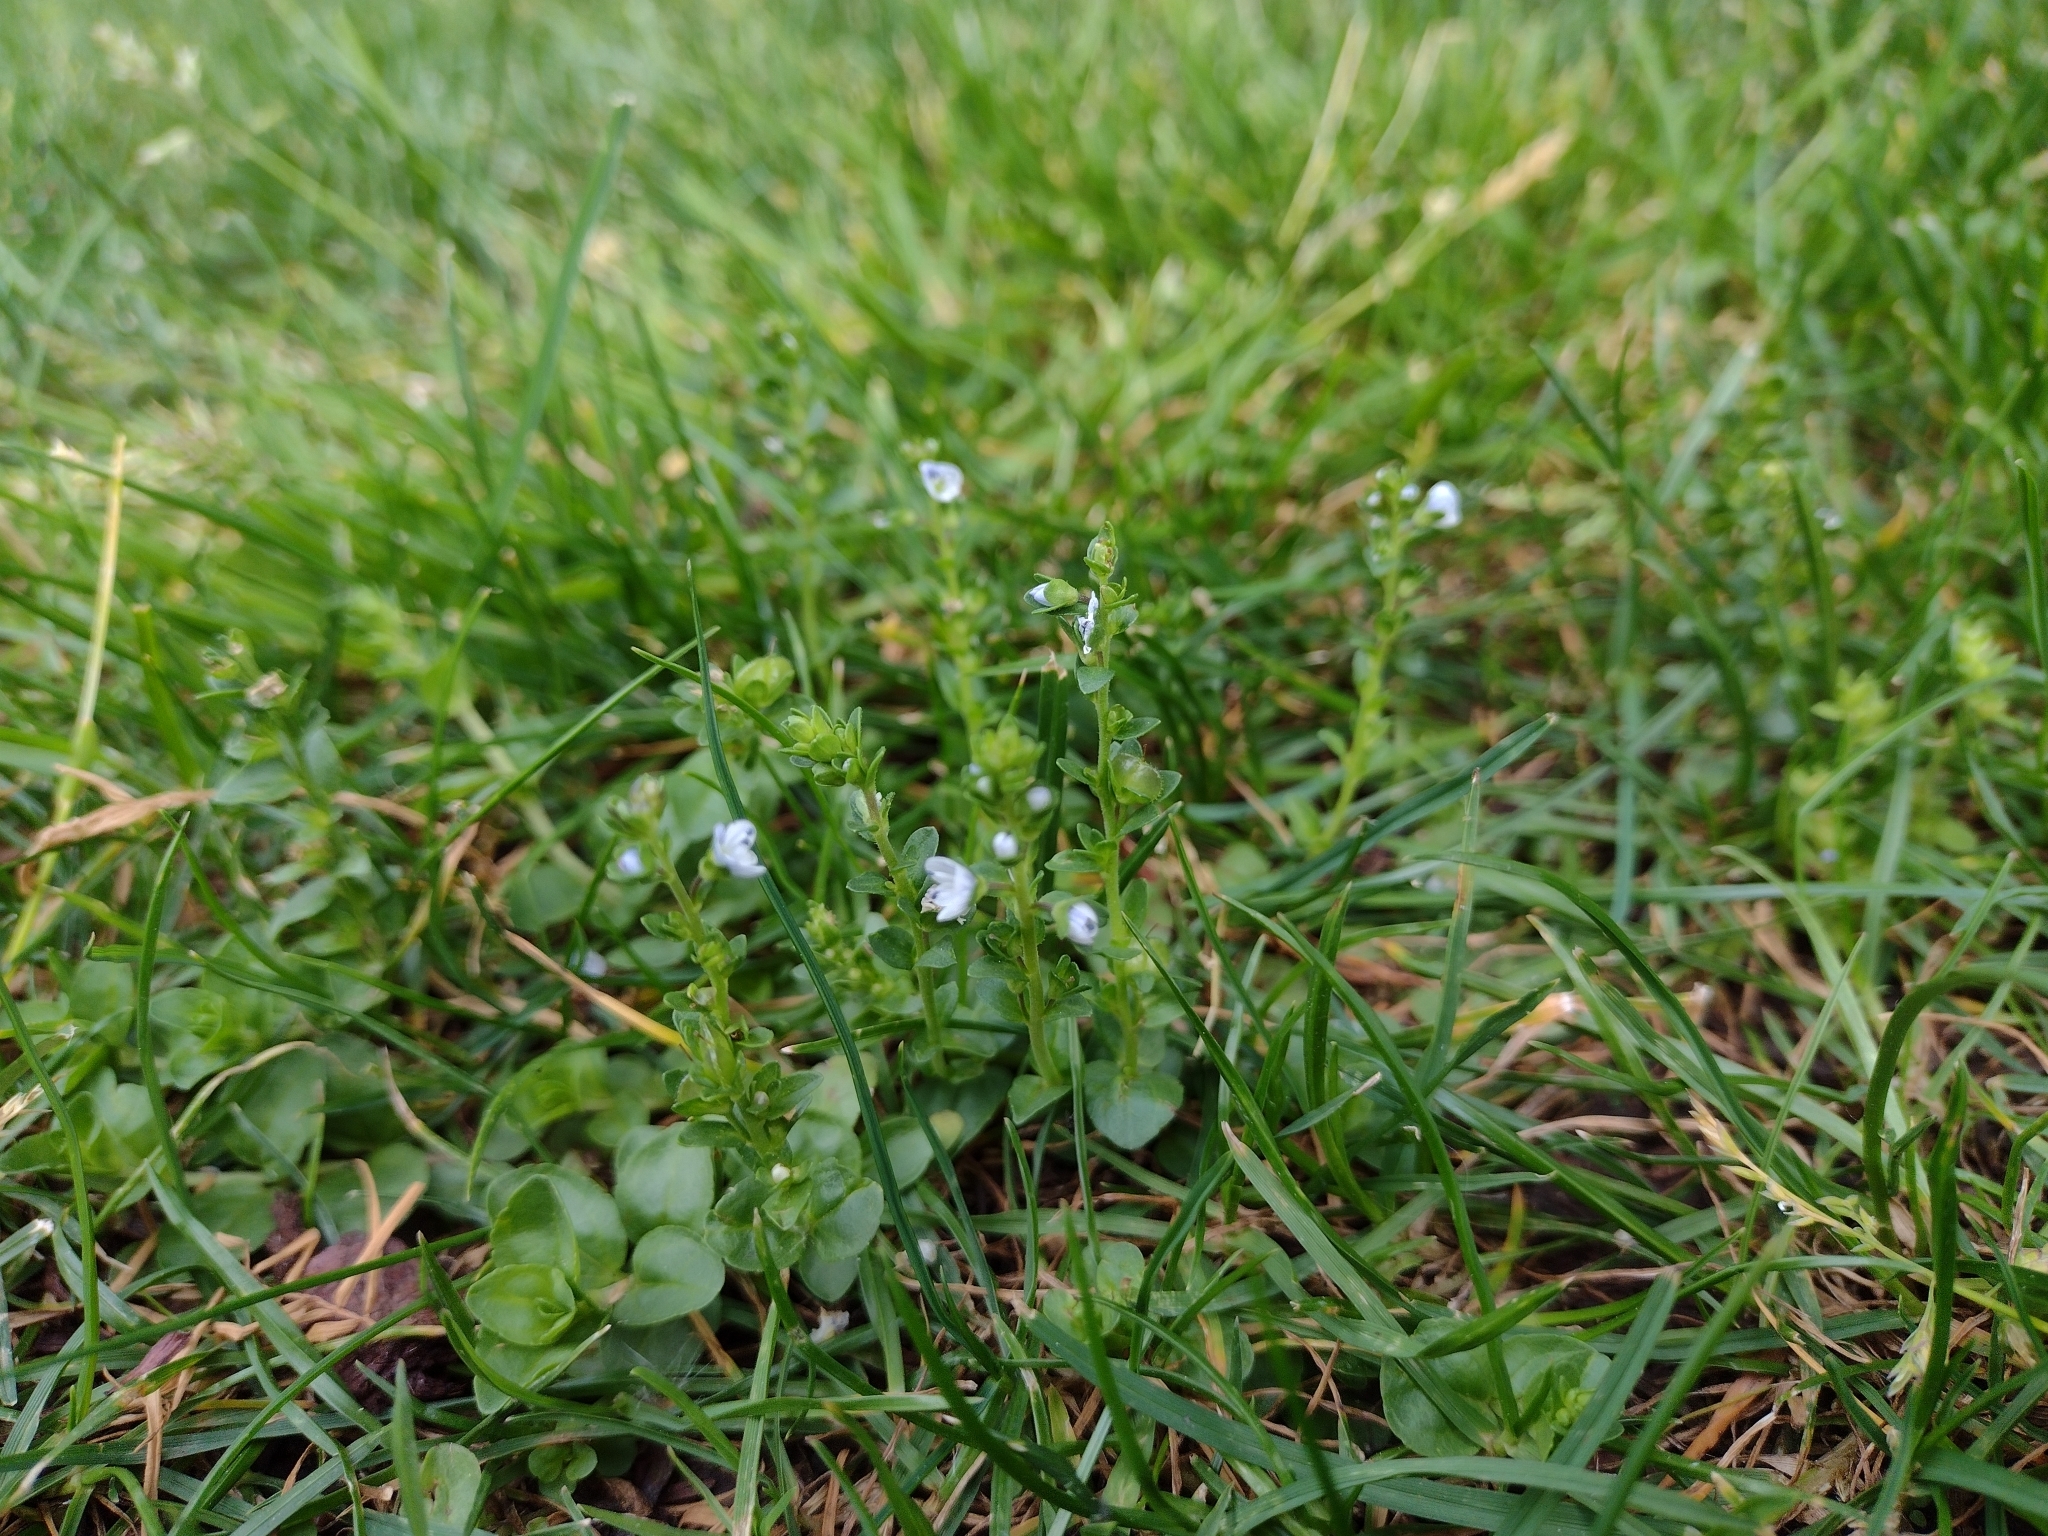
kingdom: Plantae
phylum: Tracheophyta
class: Magnoliopsida
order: Lamiales
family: Plantaginaceae
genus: Veronica
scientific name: Veronica serpyllifolia
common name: Thyme-leaved speedwell
